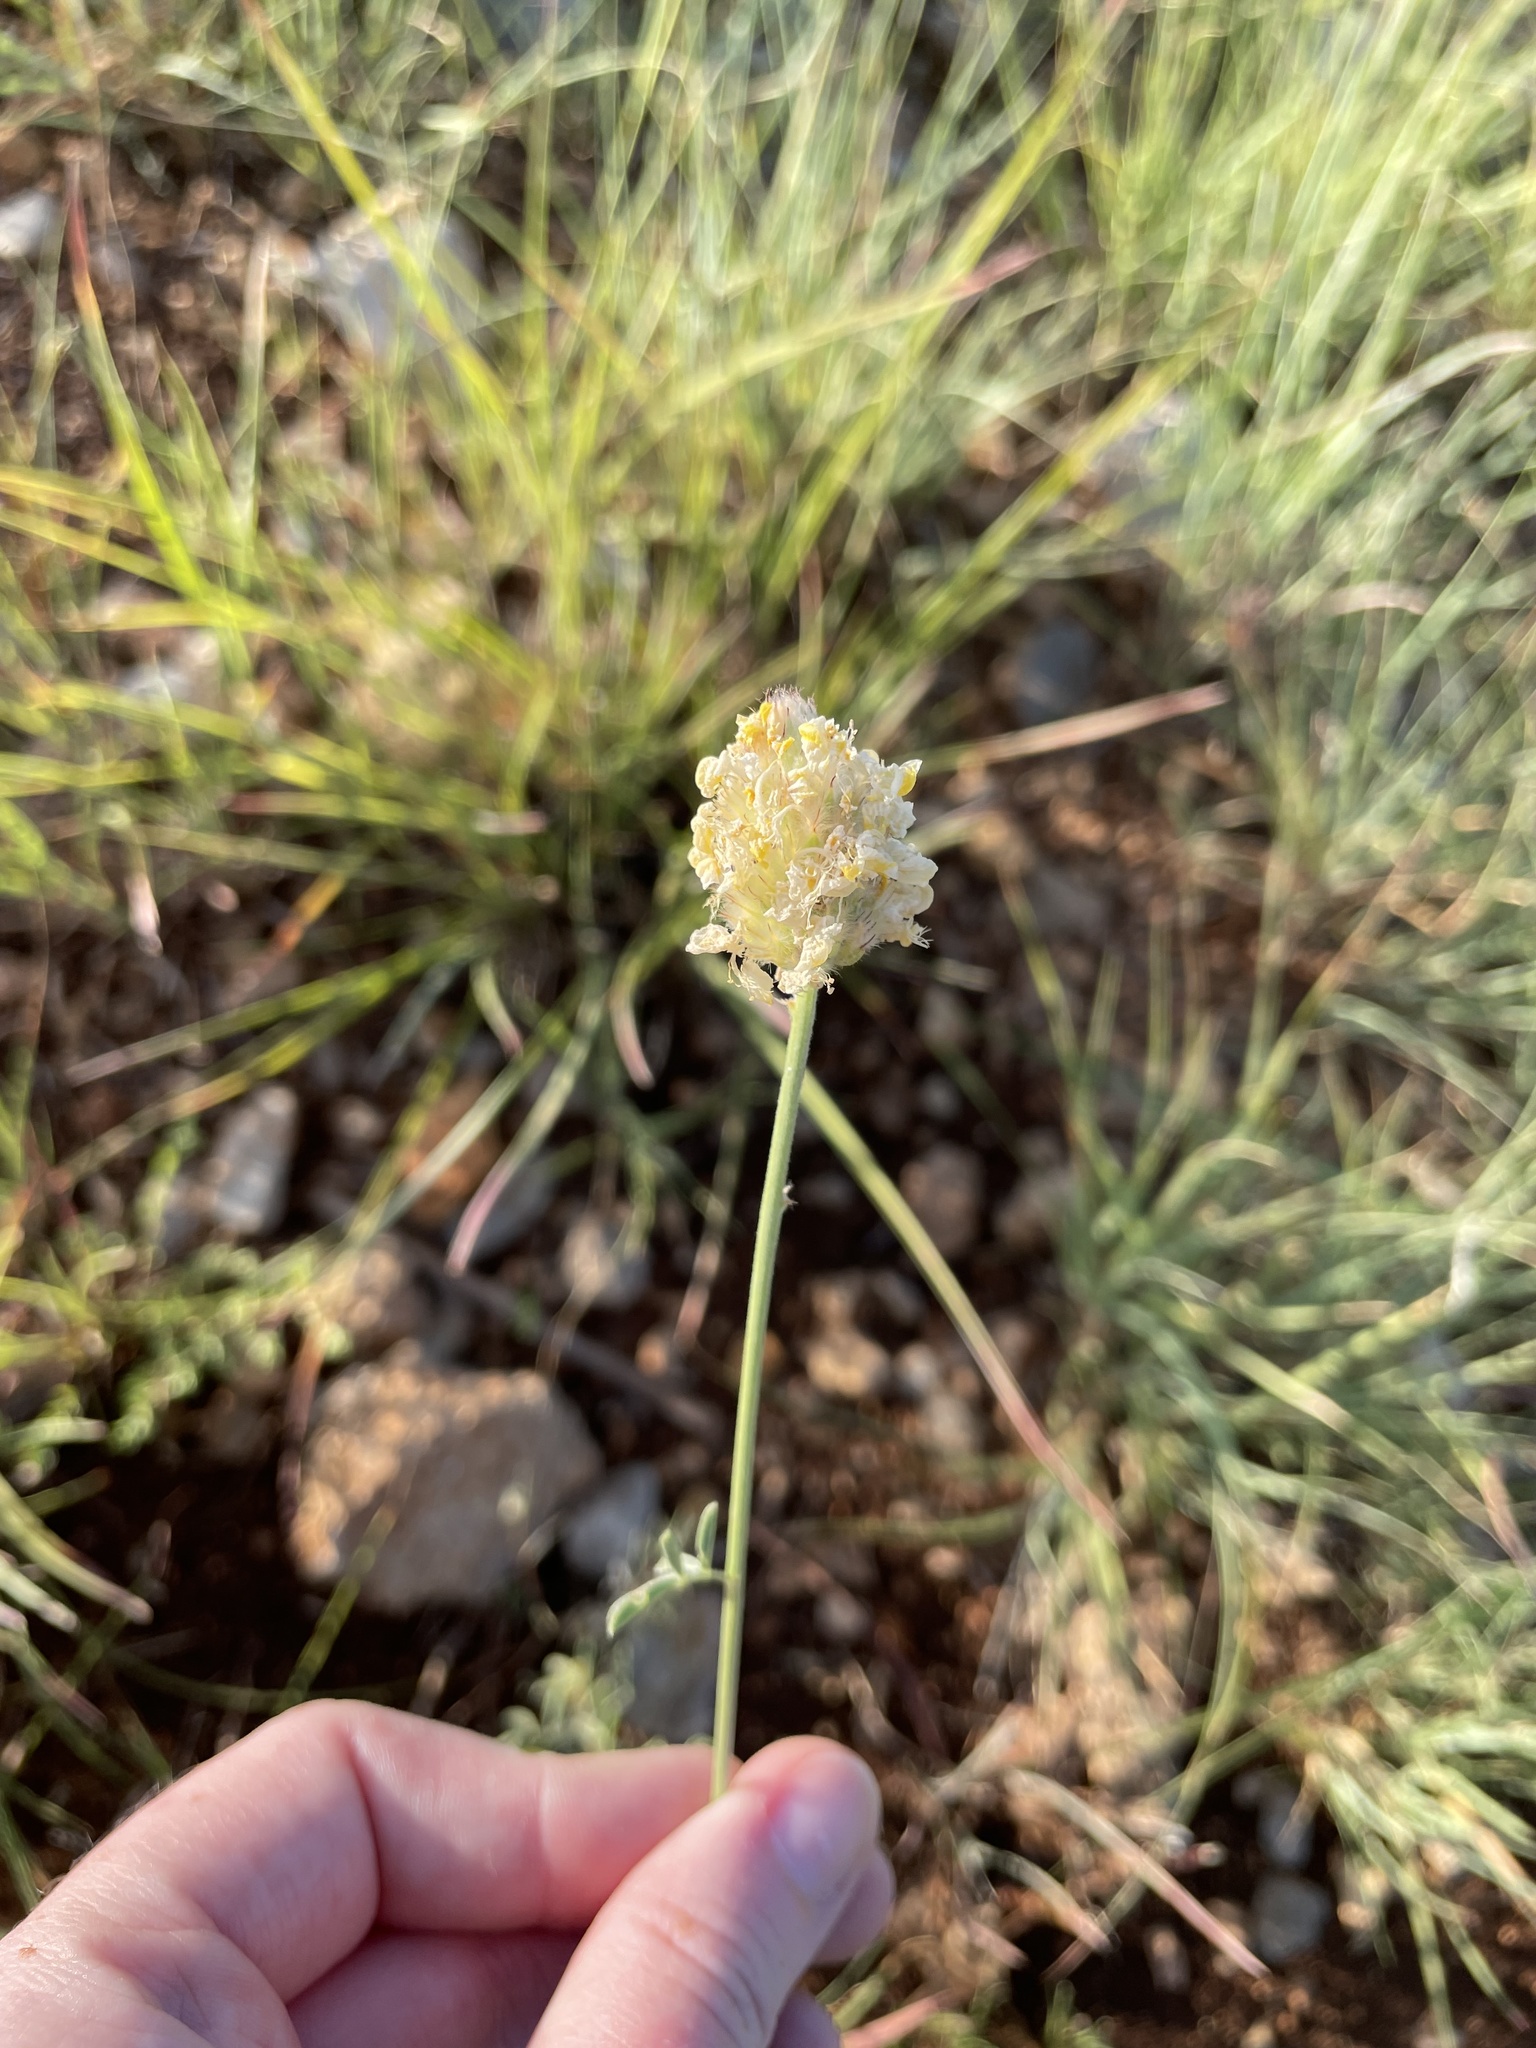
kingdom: Plantae
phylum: Tracheophyta
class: Magnoliopsida
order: Fabales
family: Fabaceae
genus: Dalea
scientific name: Dalea aurea
